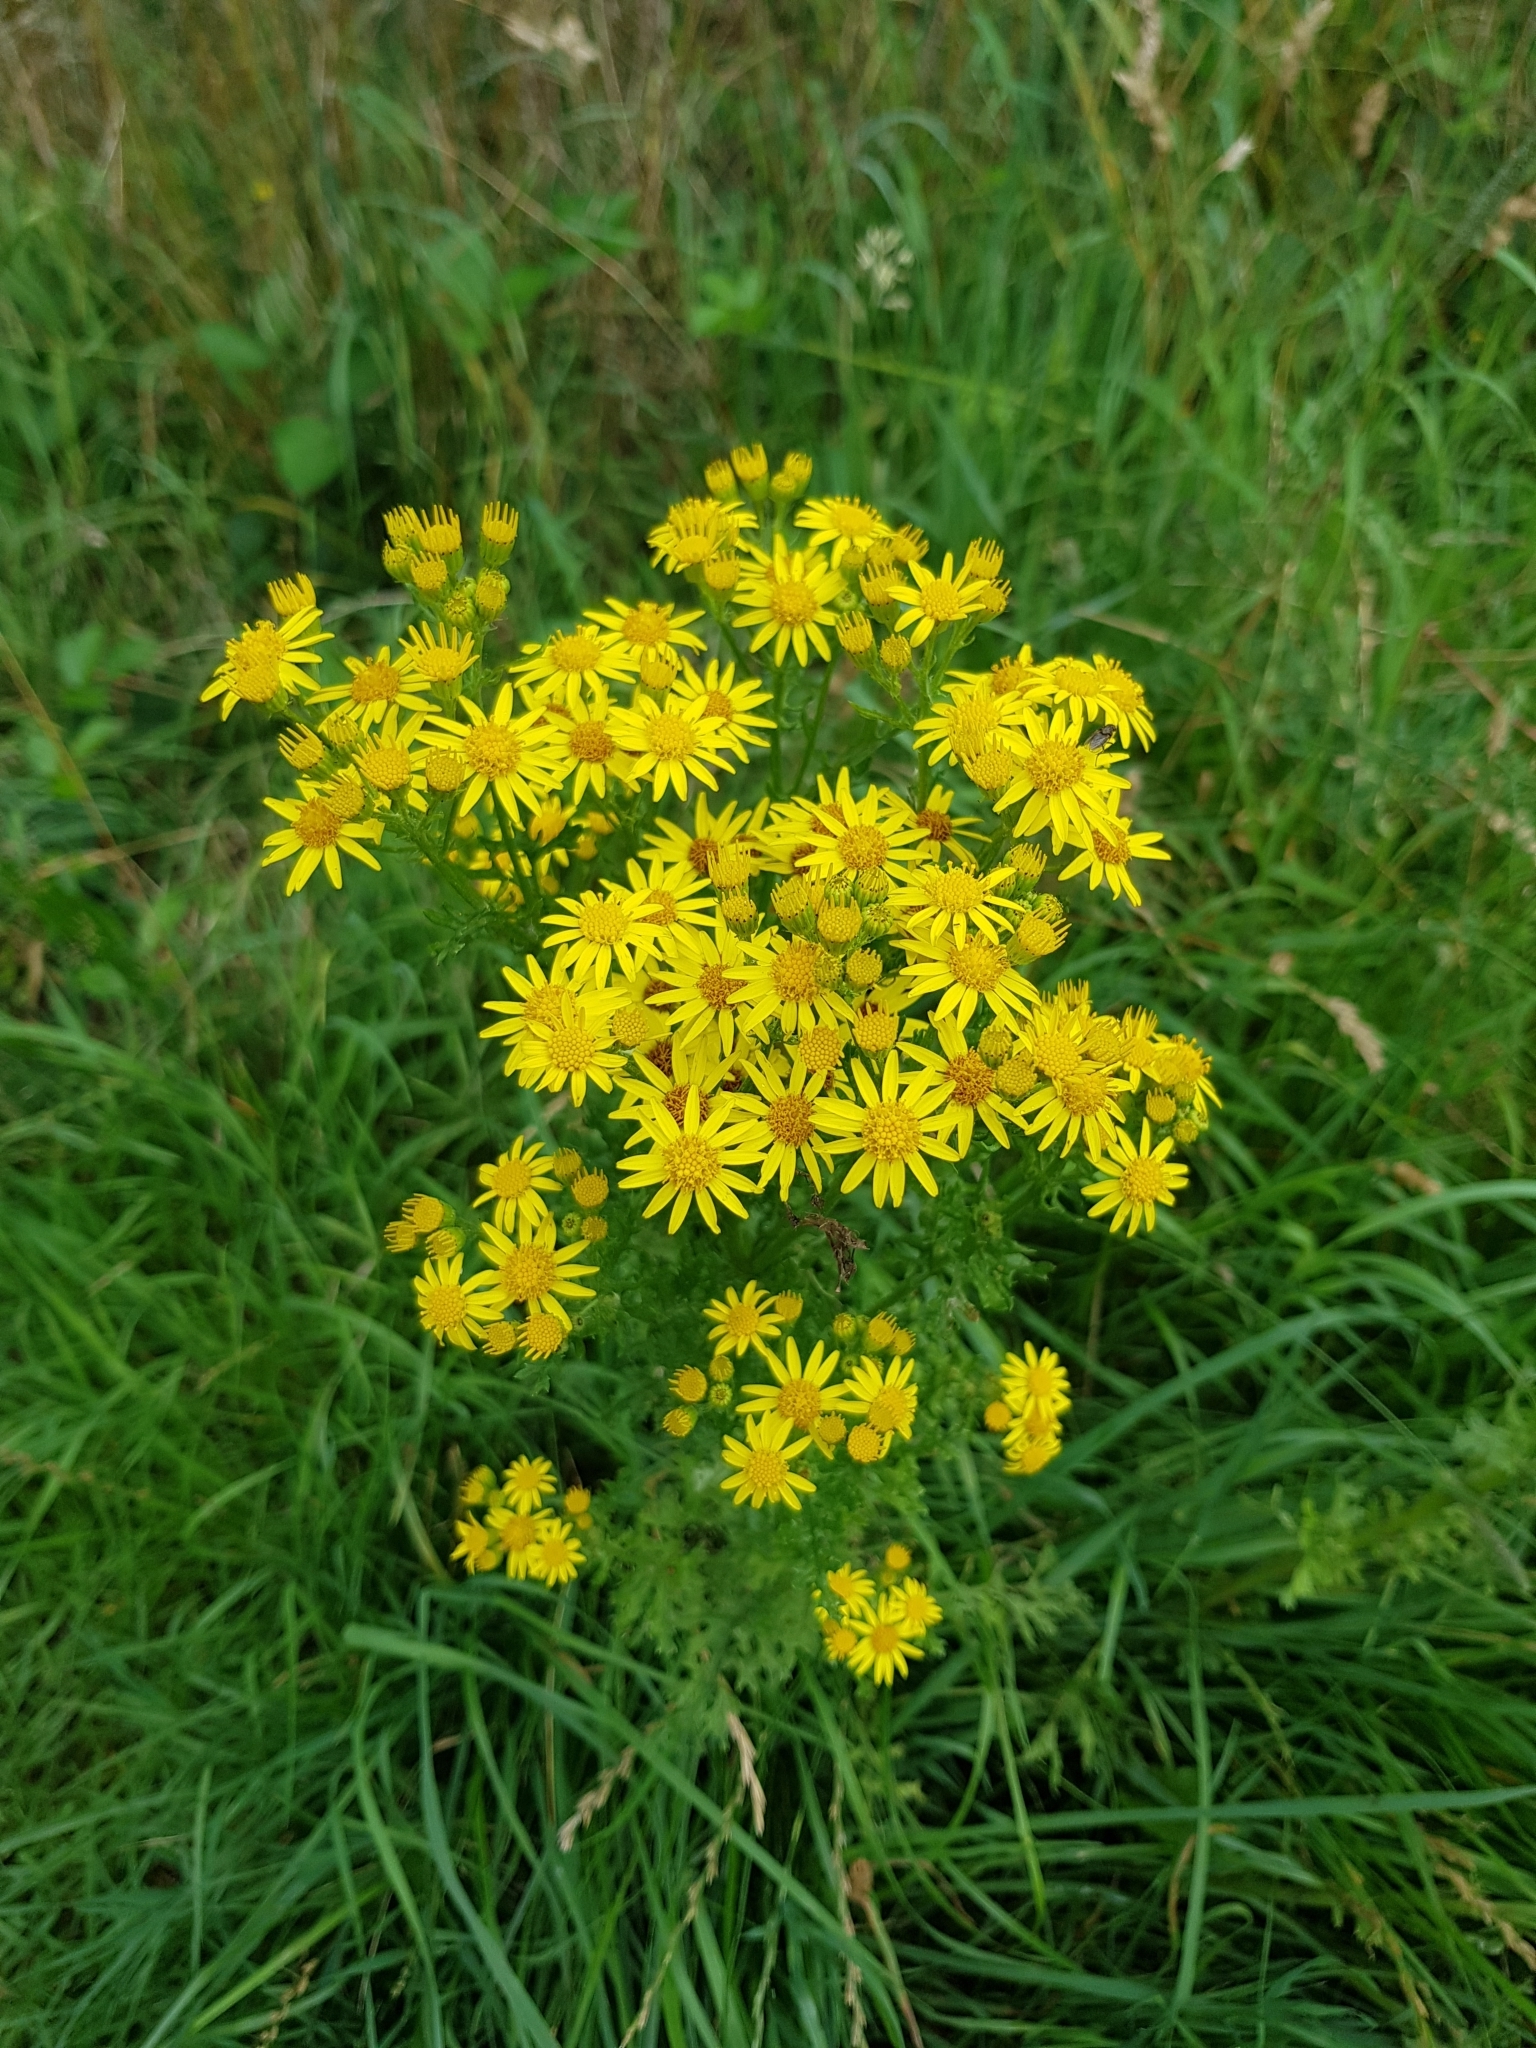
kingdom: Plantae
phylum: Tracheophyta
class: Magnoliopsida
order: Asterales
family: Asteraceae
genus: Jacobaea
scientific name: Jacobaea vulgaris
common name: Stinking willie
